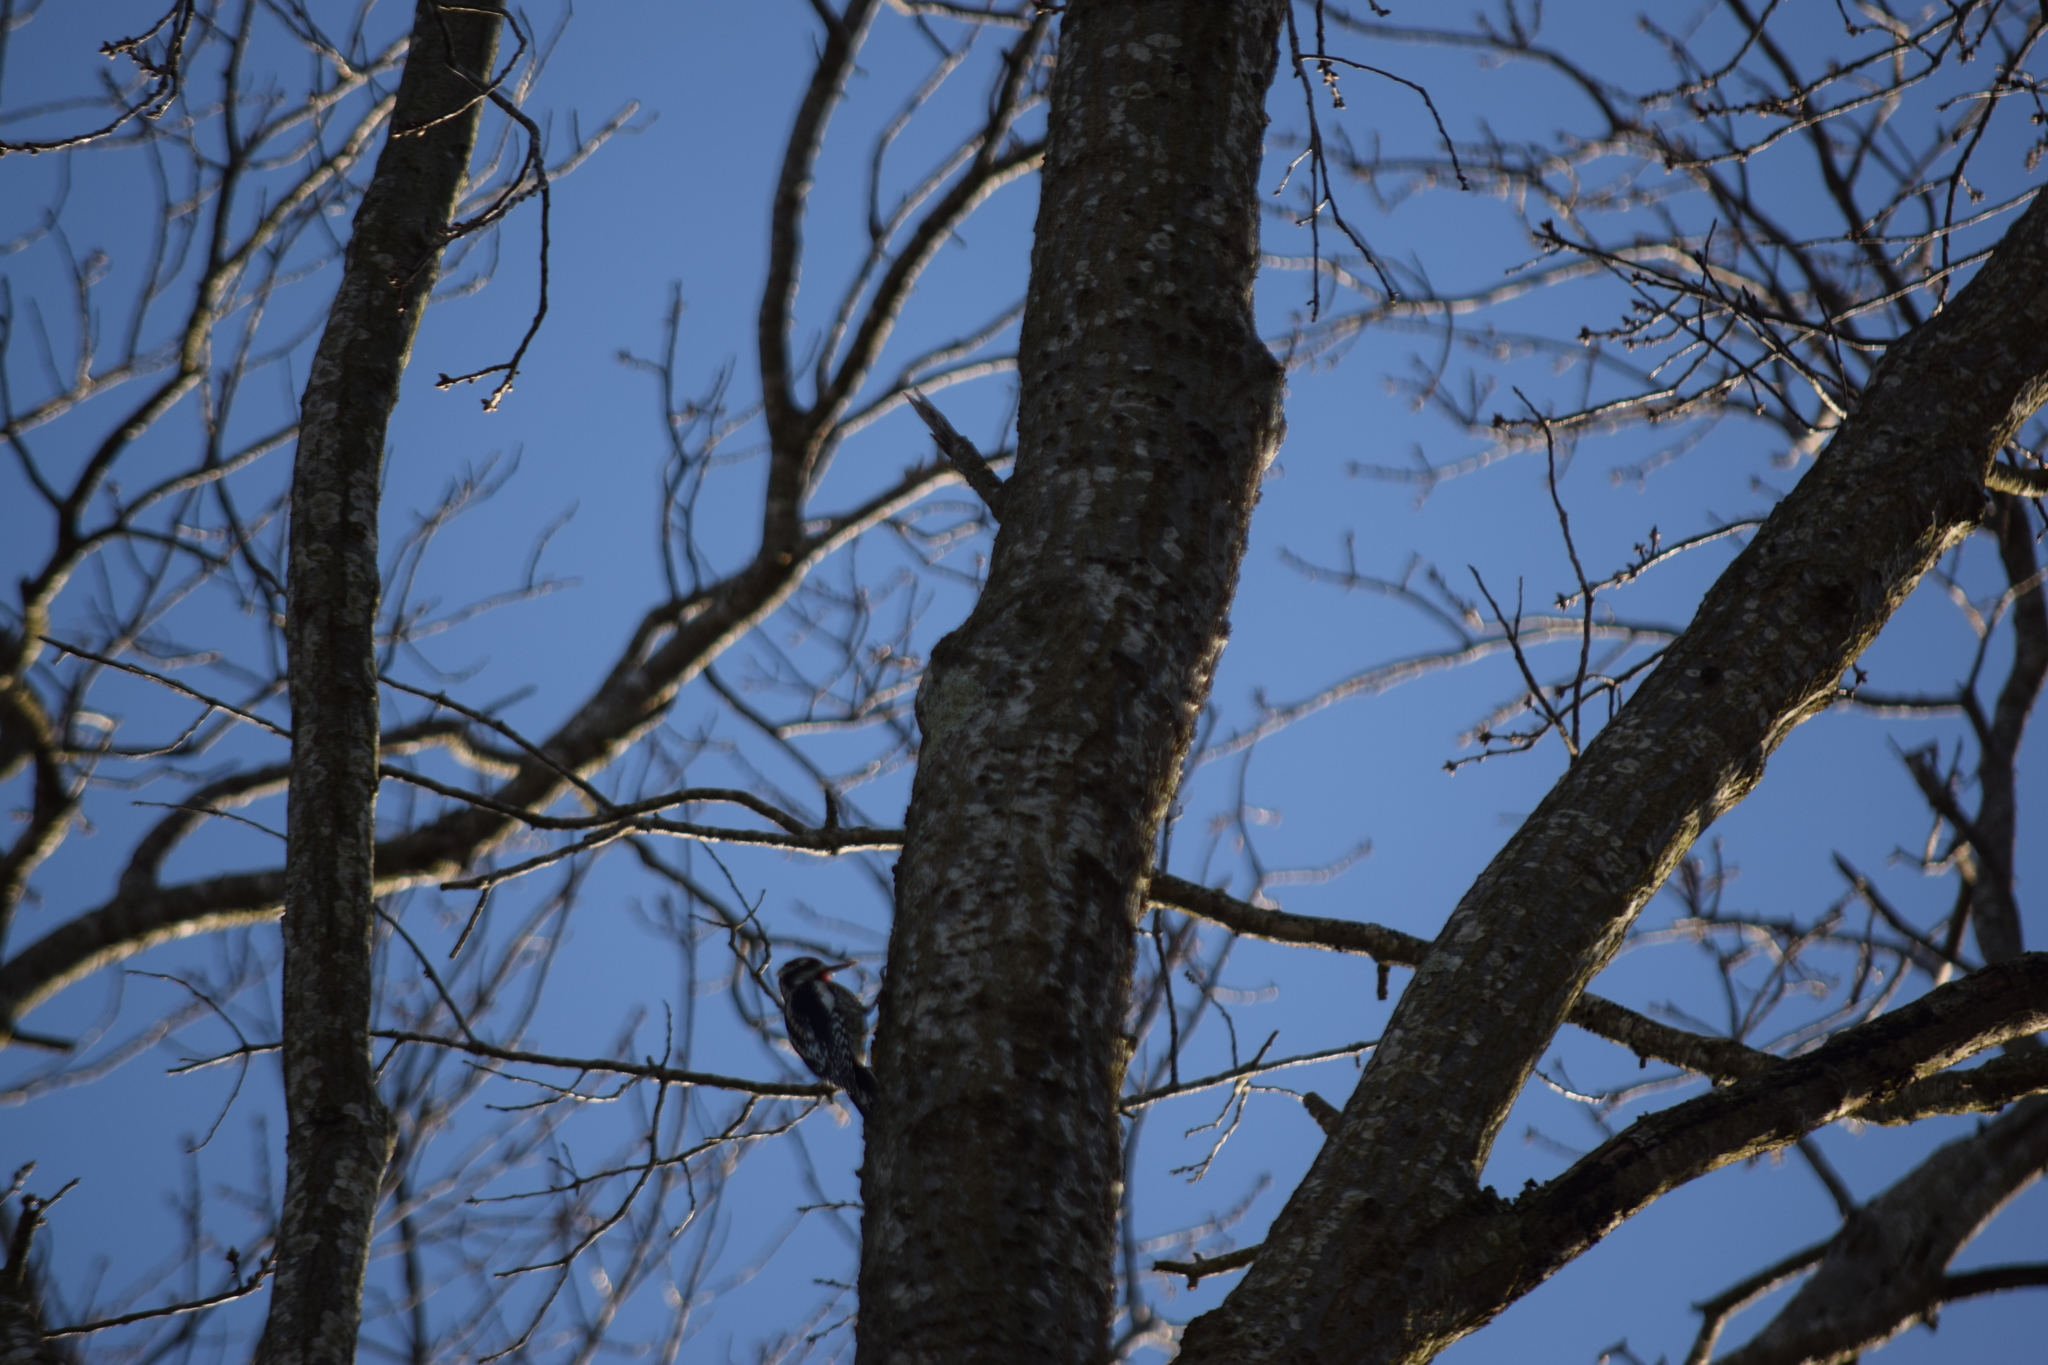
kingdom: Animalia
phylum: Chordata
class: Aves
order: Piciformes
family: Picidae
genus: Sphyrapicus
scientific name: Sphyrapicus varius
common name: Yellow-bellied sapsucker
